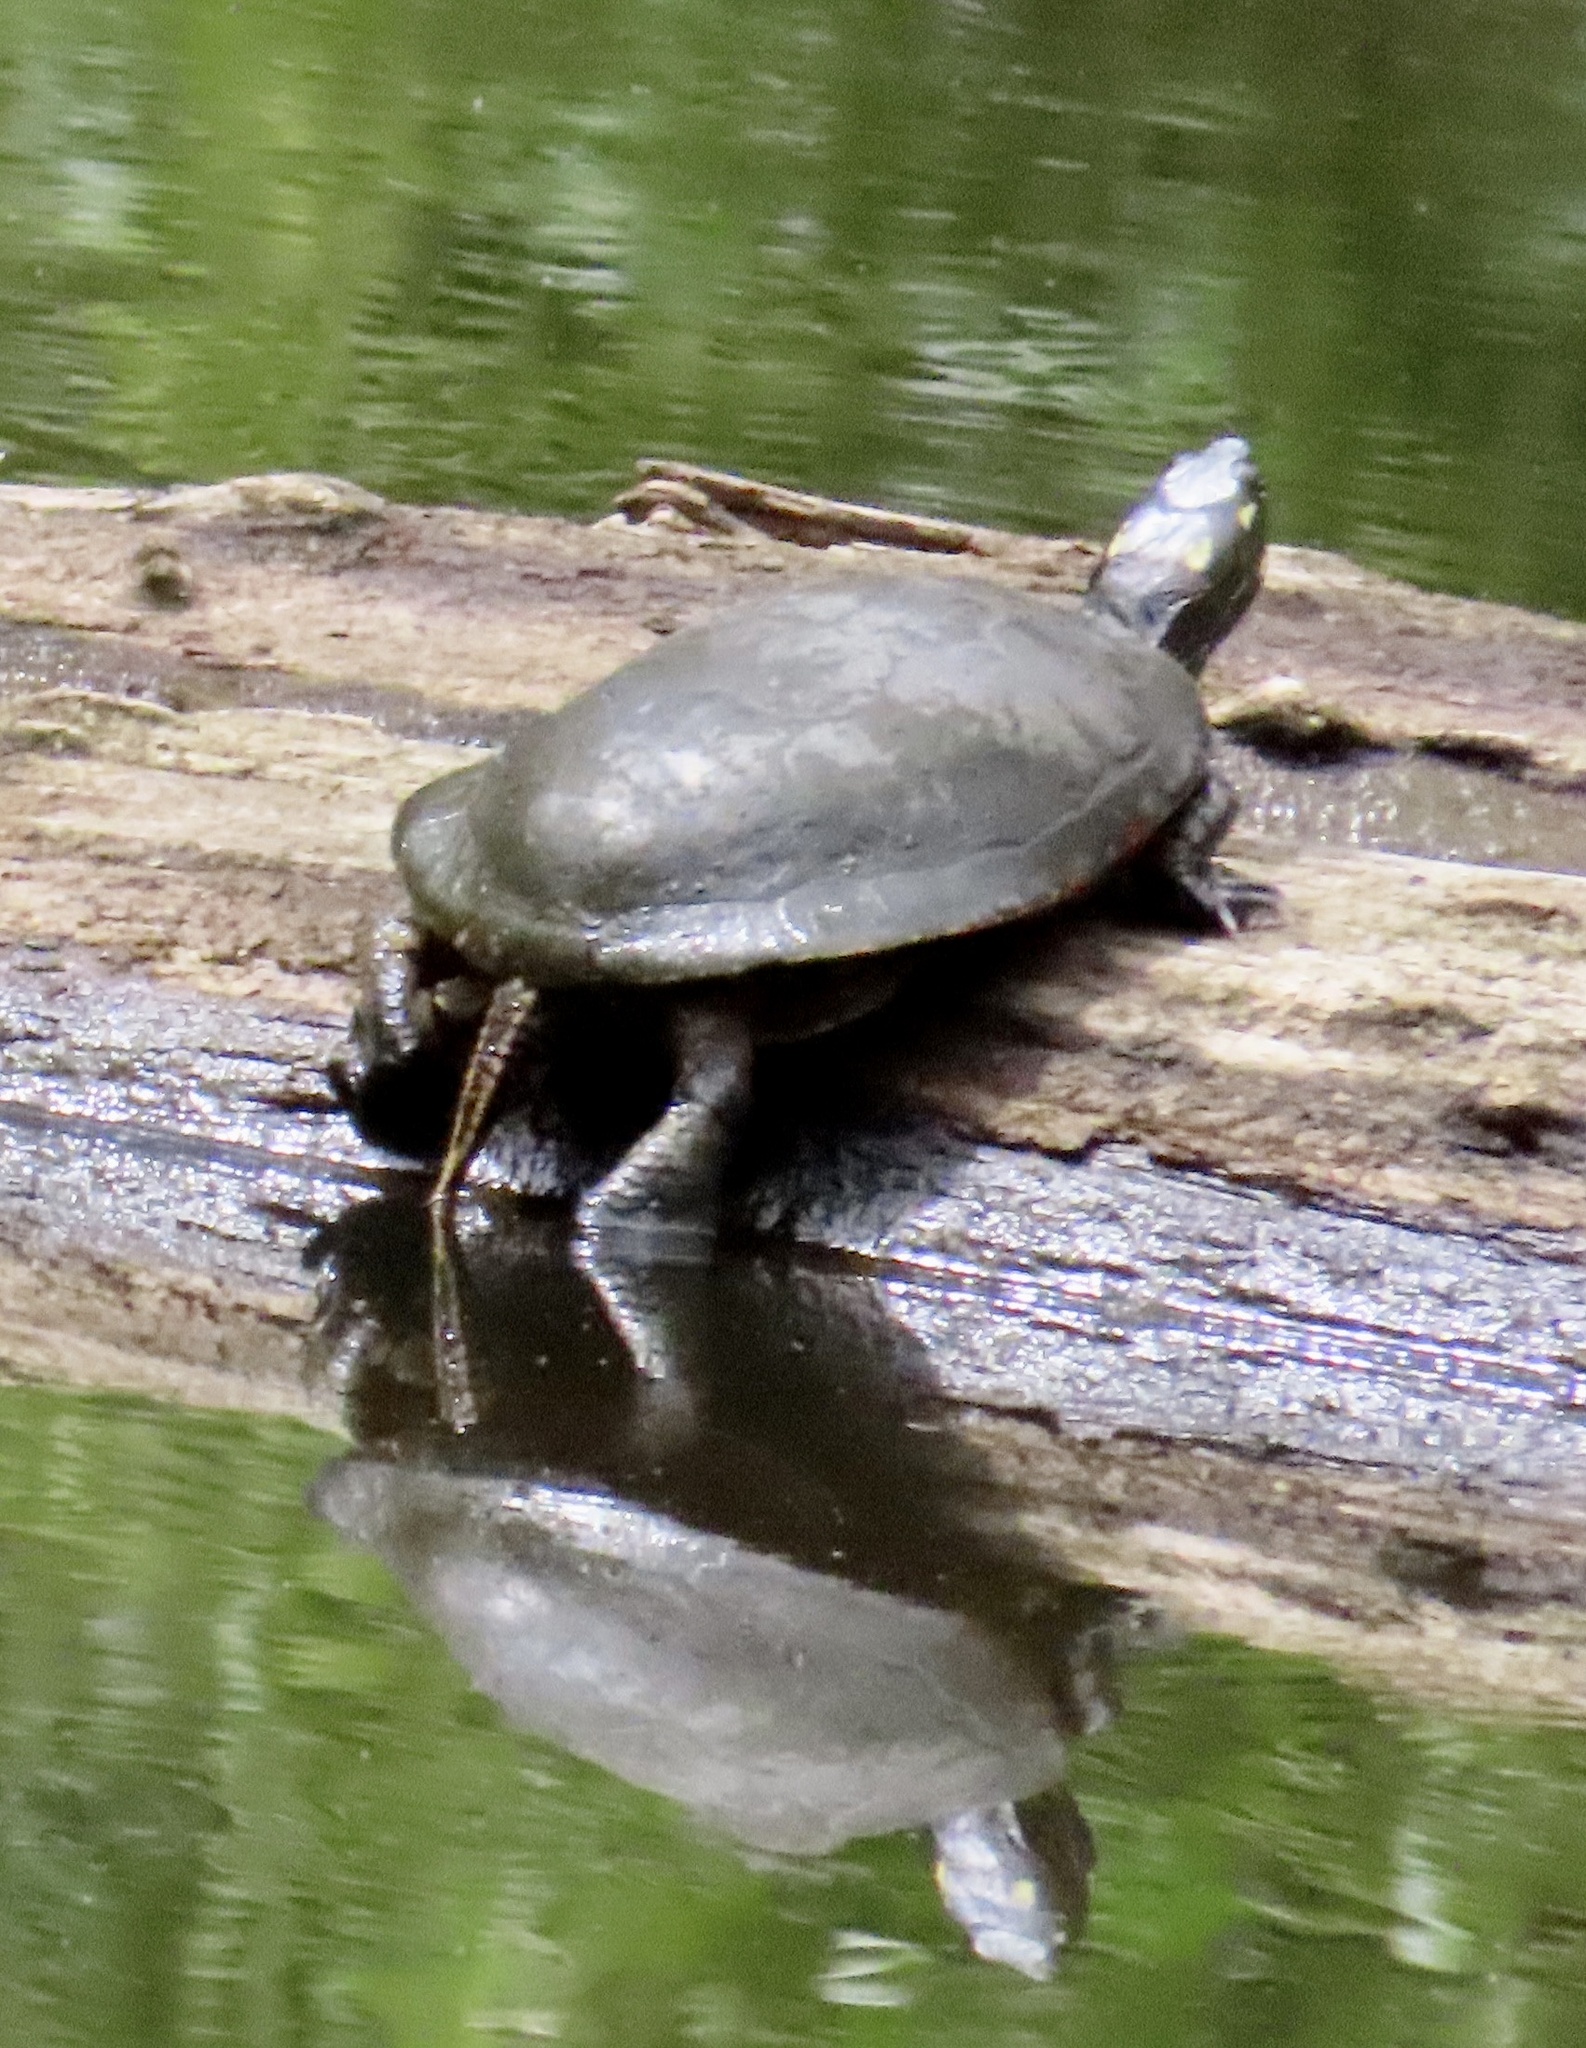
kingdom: Animalia
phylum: Chordata
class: Testudines
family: Emydidae
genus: Chrysemys
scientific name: Chrysemys picta
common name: Painted turtle
